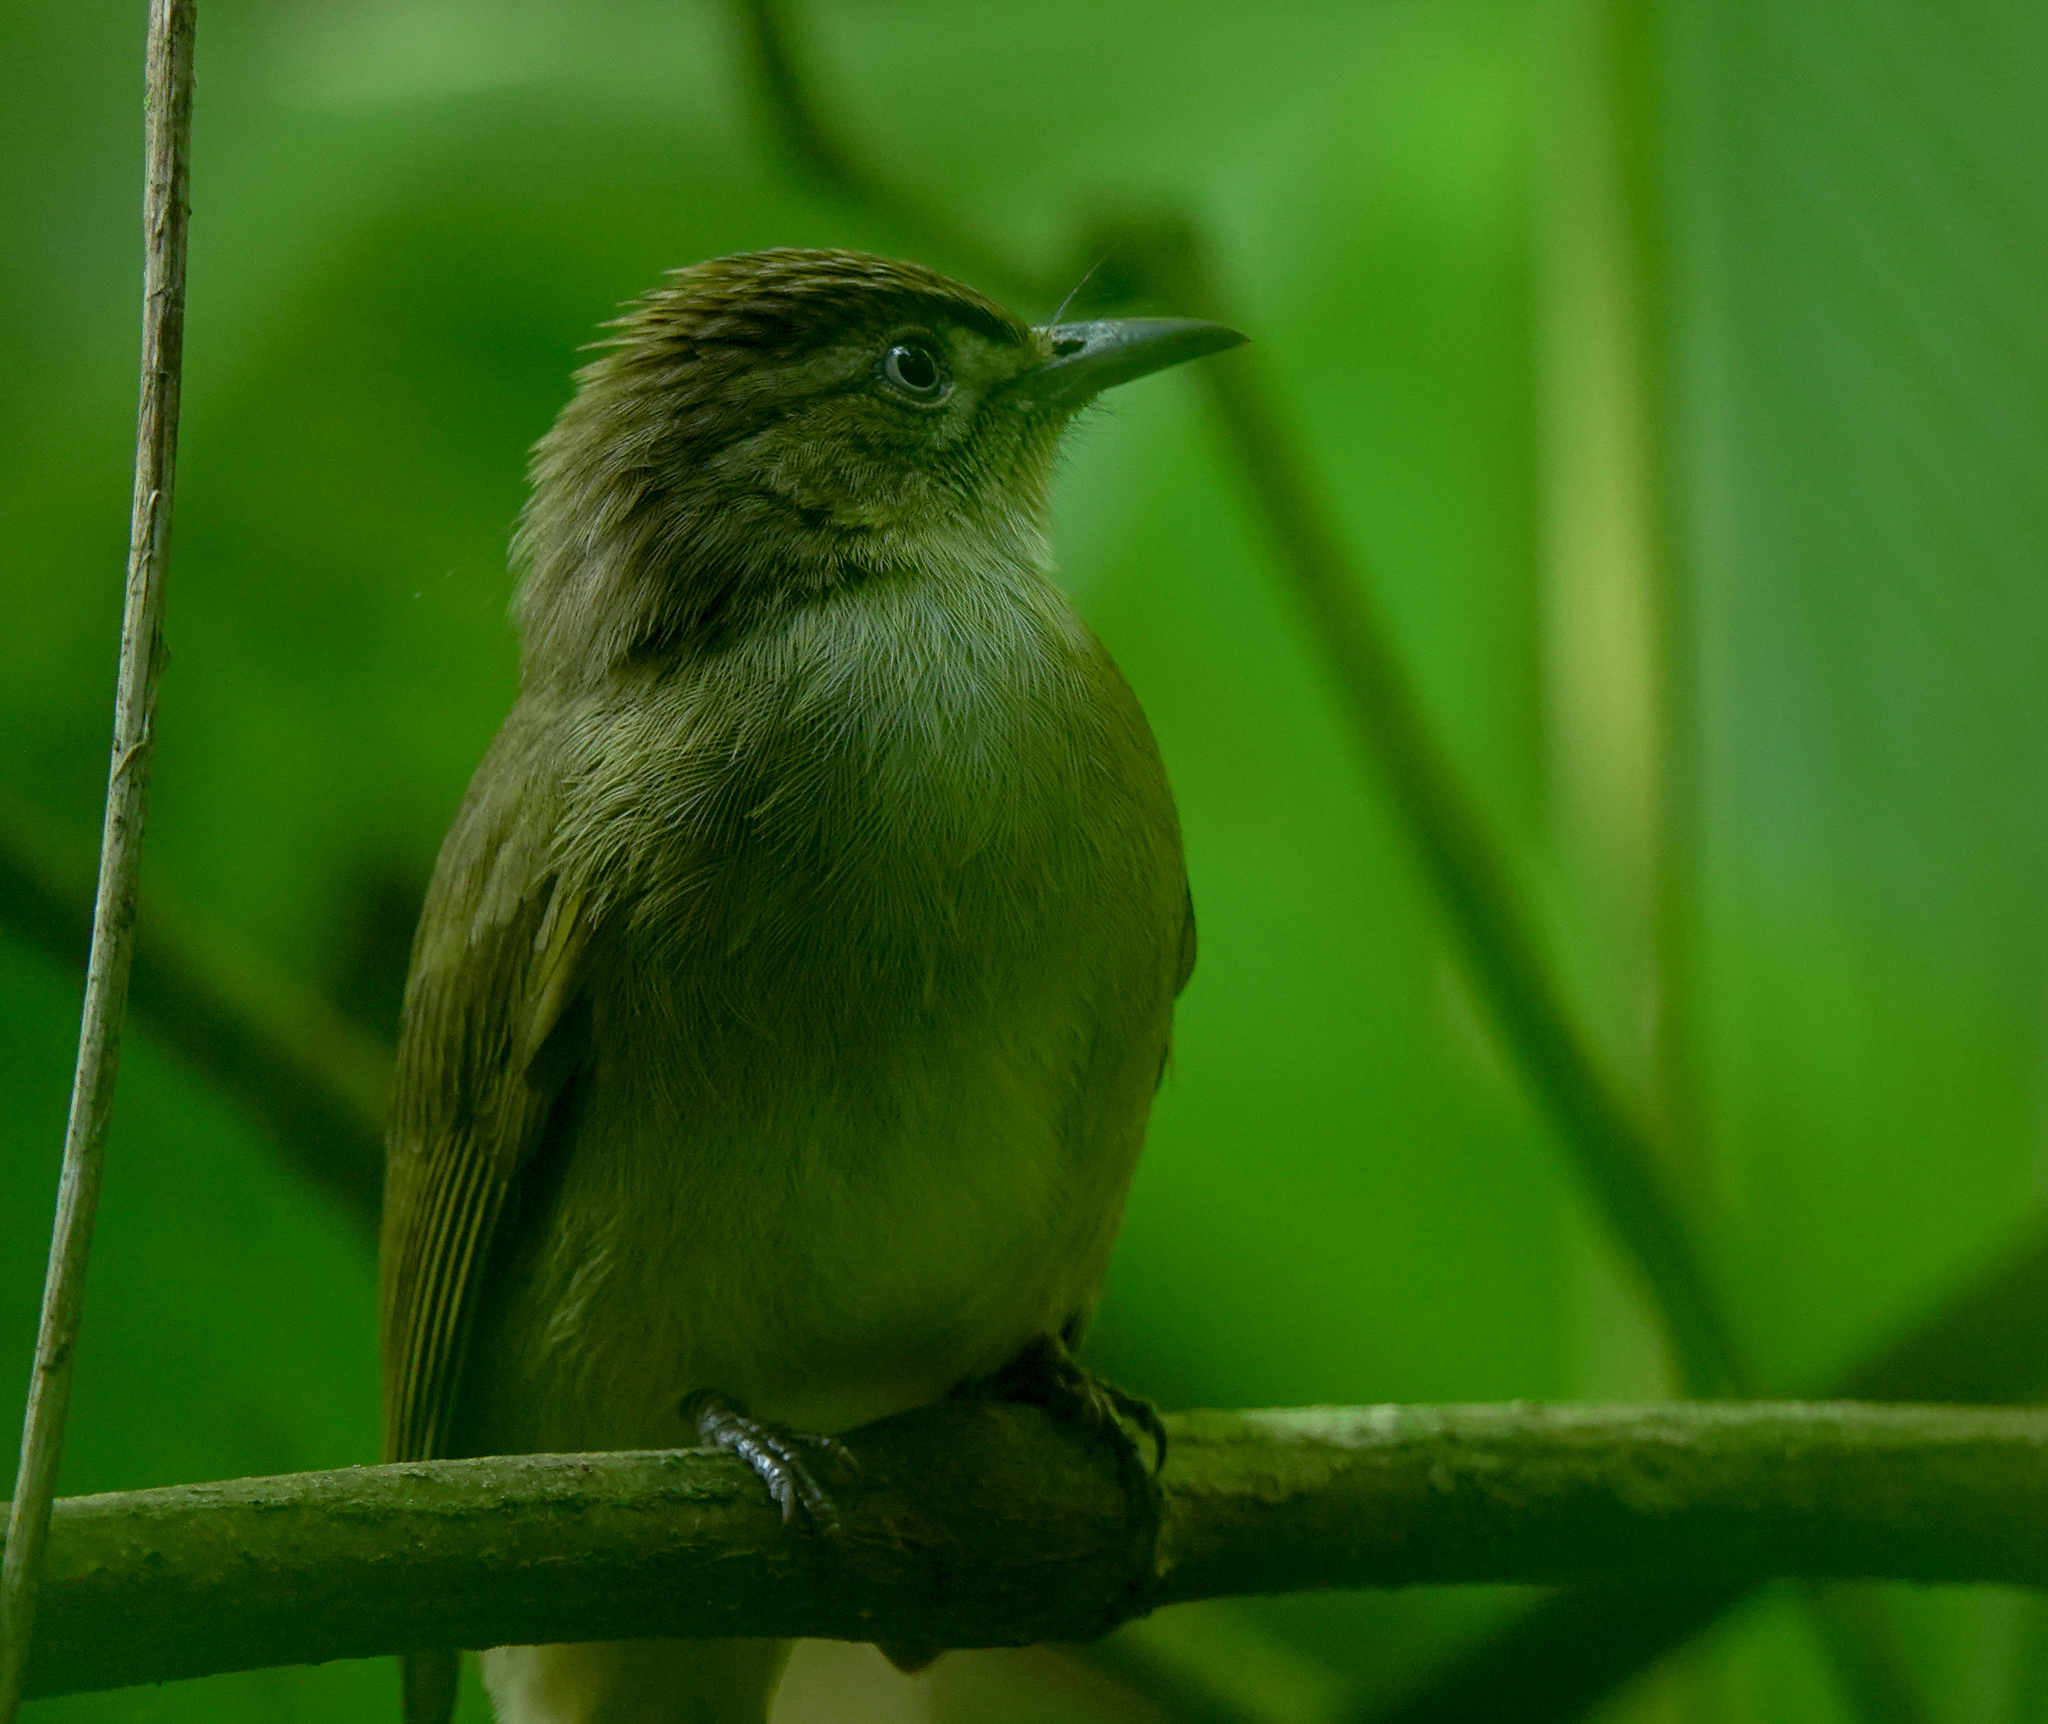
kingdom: Animalia
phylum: Chordata
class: Aves
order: Passeriformes
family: Pycnonotidae
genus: Iole
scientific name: Iole virescens
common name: Olive bulbul
